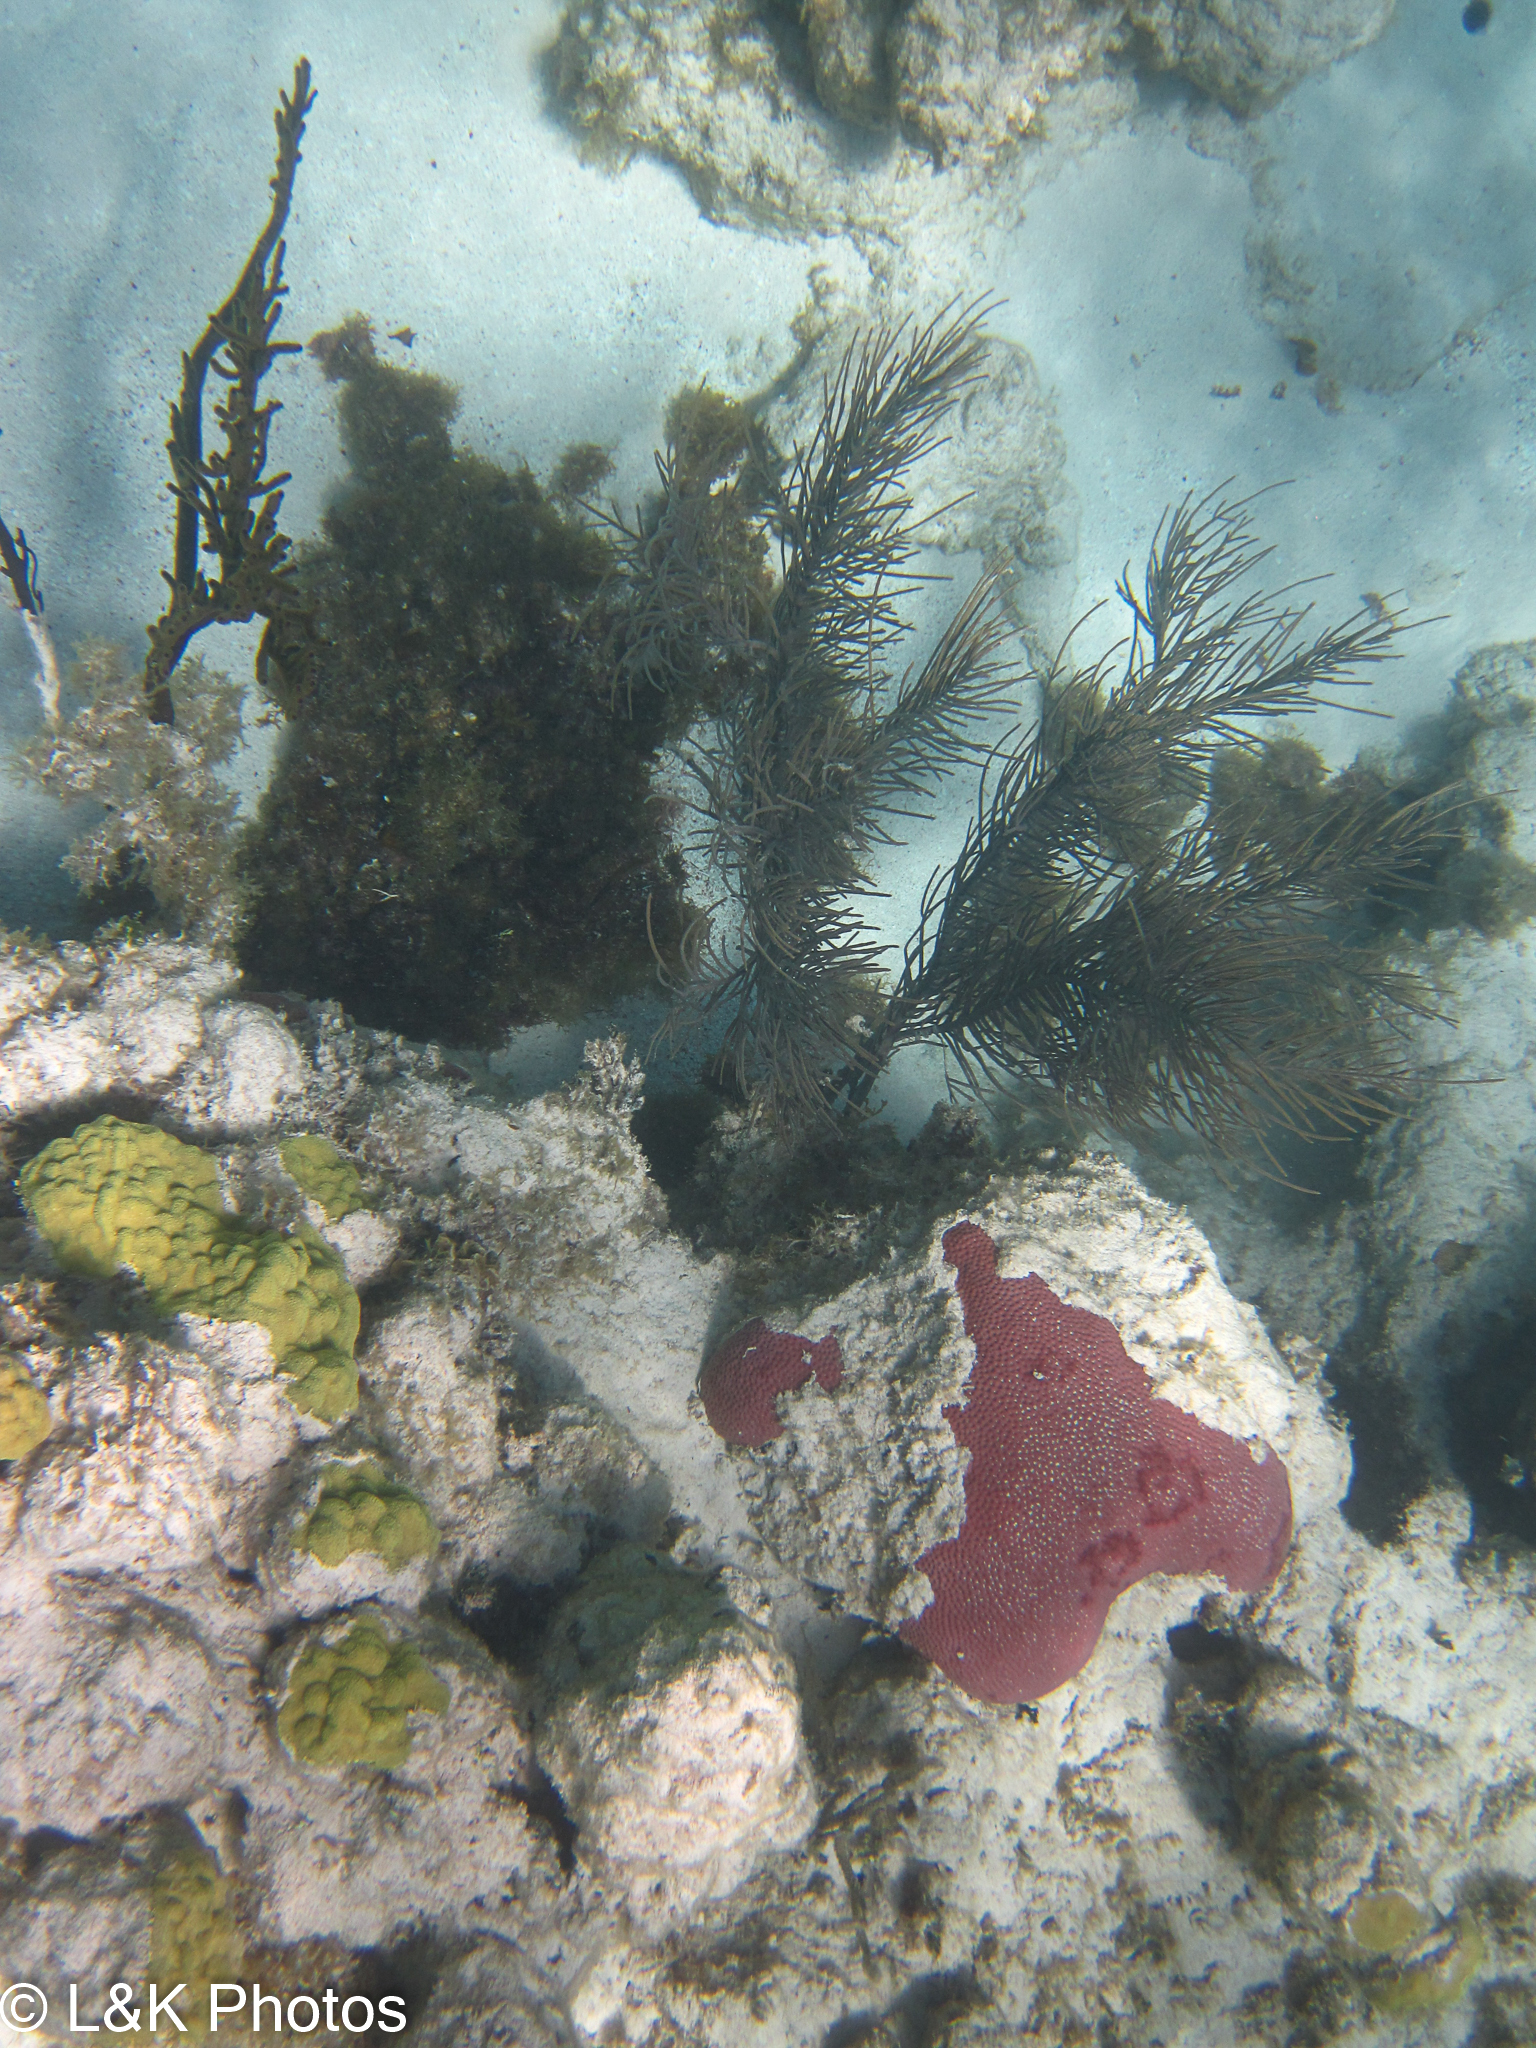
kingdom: Animalia
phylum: Cnidaria
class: Anthozoa
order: Scleractinia
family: Poritidae
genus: Porites
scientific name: Porites astreoides
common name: Mustard hill coral
